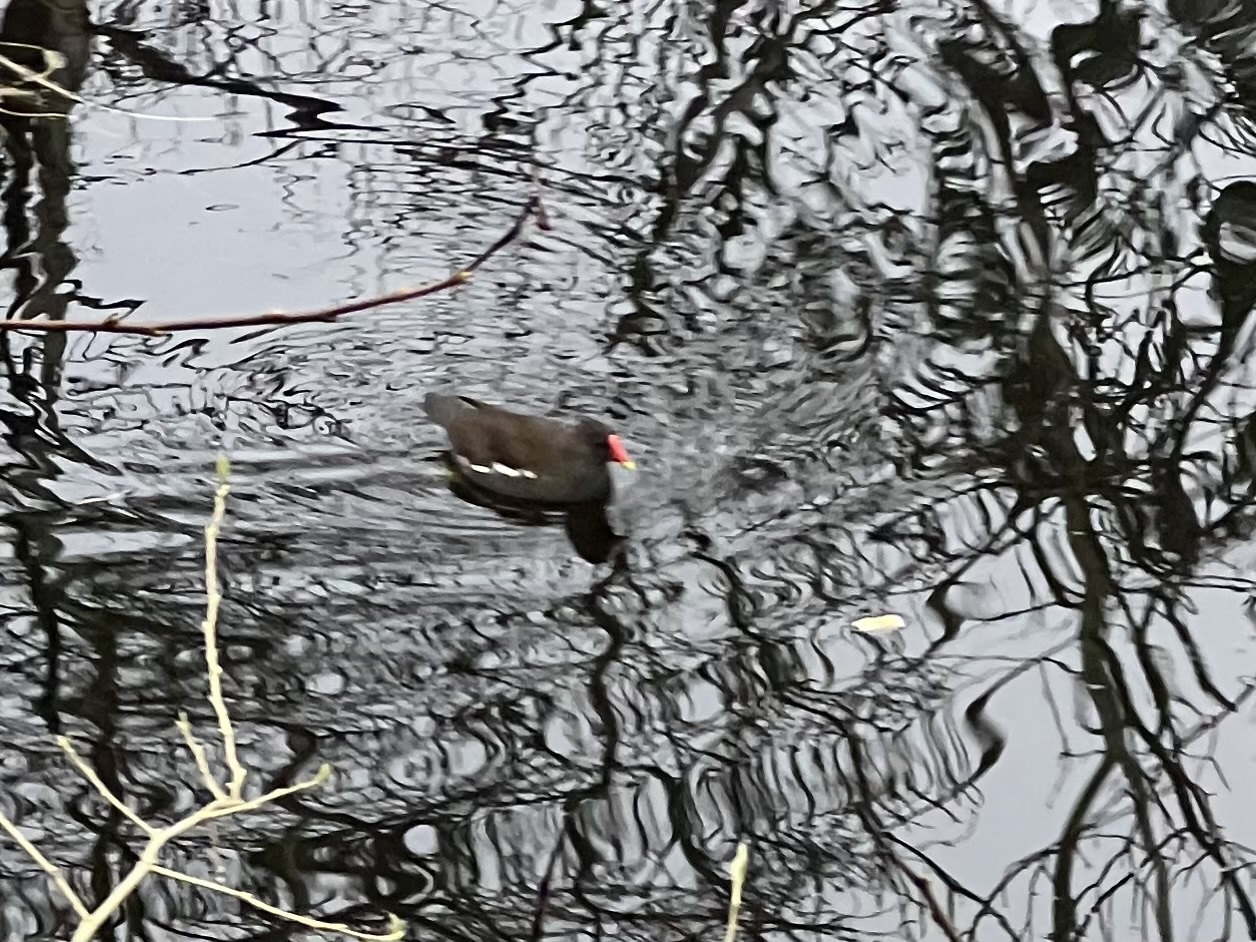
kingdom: Animalia
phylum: Chordata
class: Aves
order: Gruiformes
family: Rallidae
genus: Gallinula
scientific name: Gallinula chloropus
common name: Common moorhen
